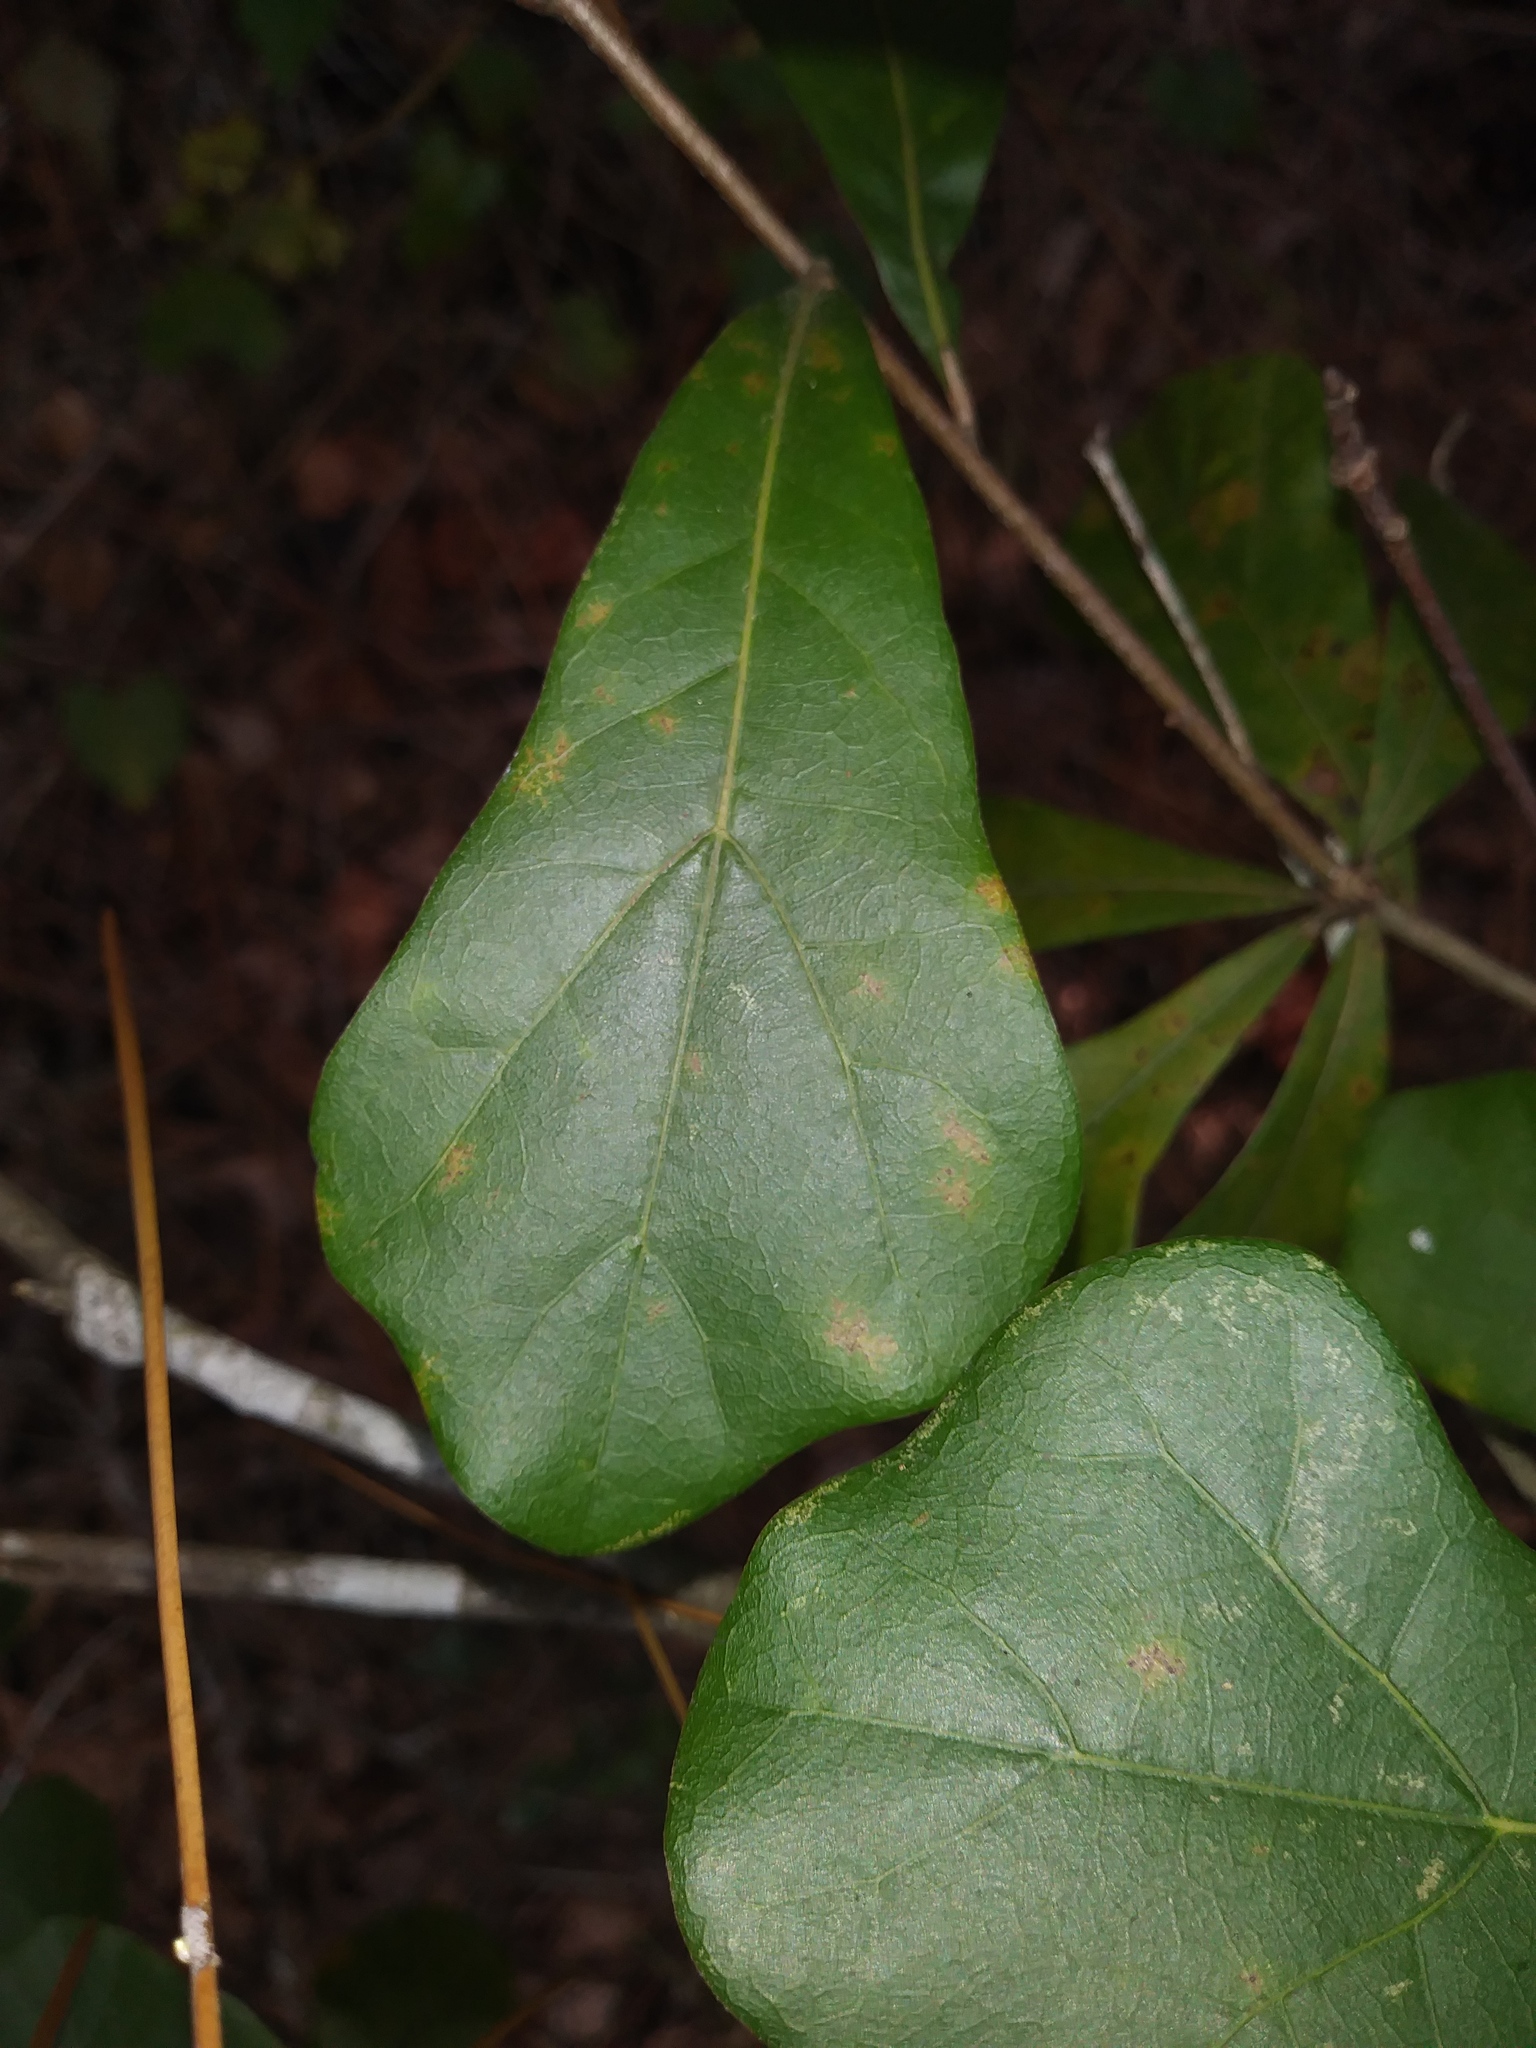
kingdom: Plantae
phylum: Tracheophyta
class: Magnoliopsida
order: Fagales
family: Fagaceae
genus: Quercus
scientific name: Quercus nigra
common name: Water oak
